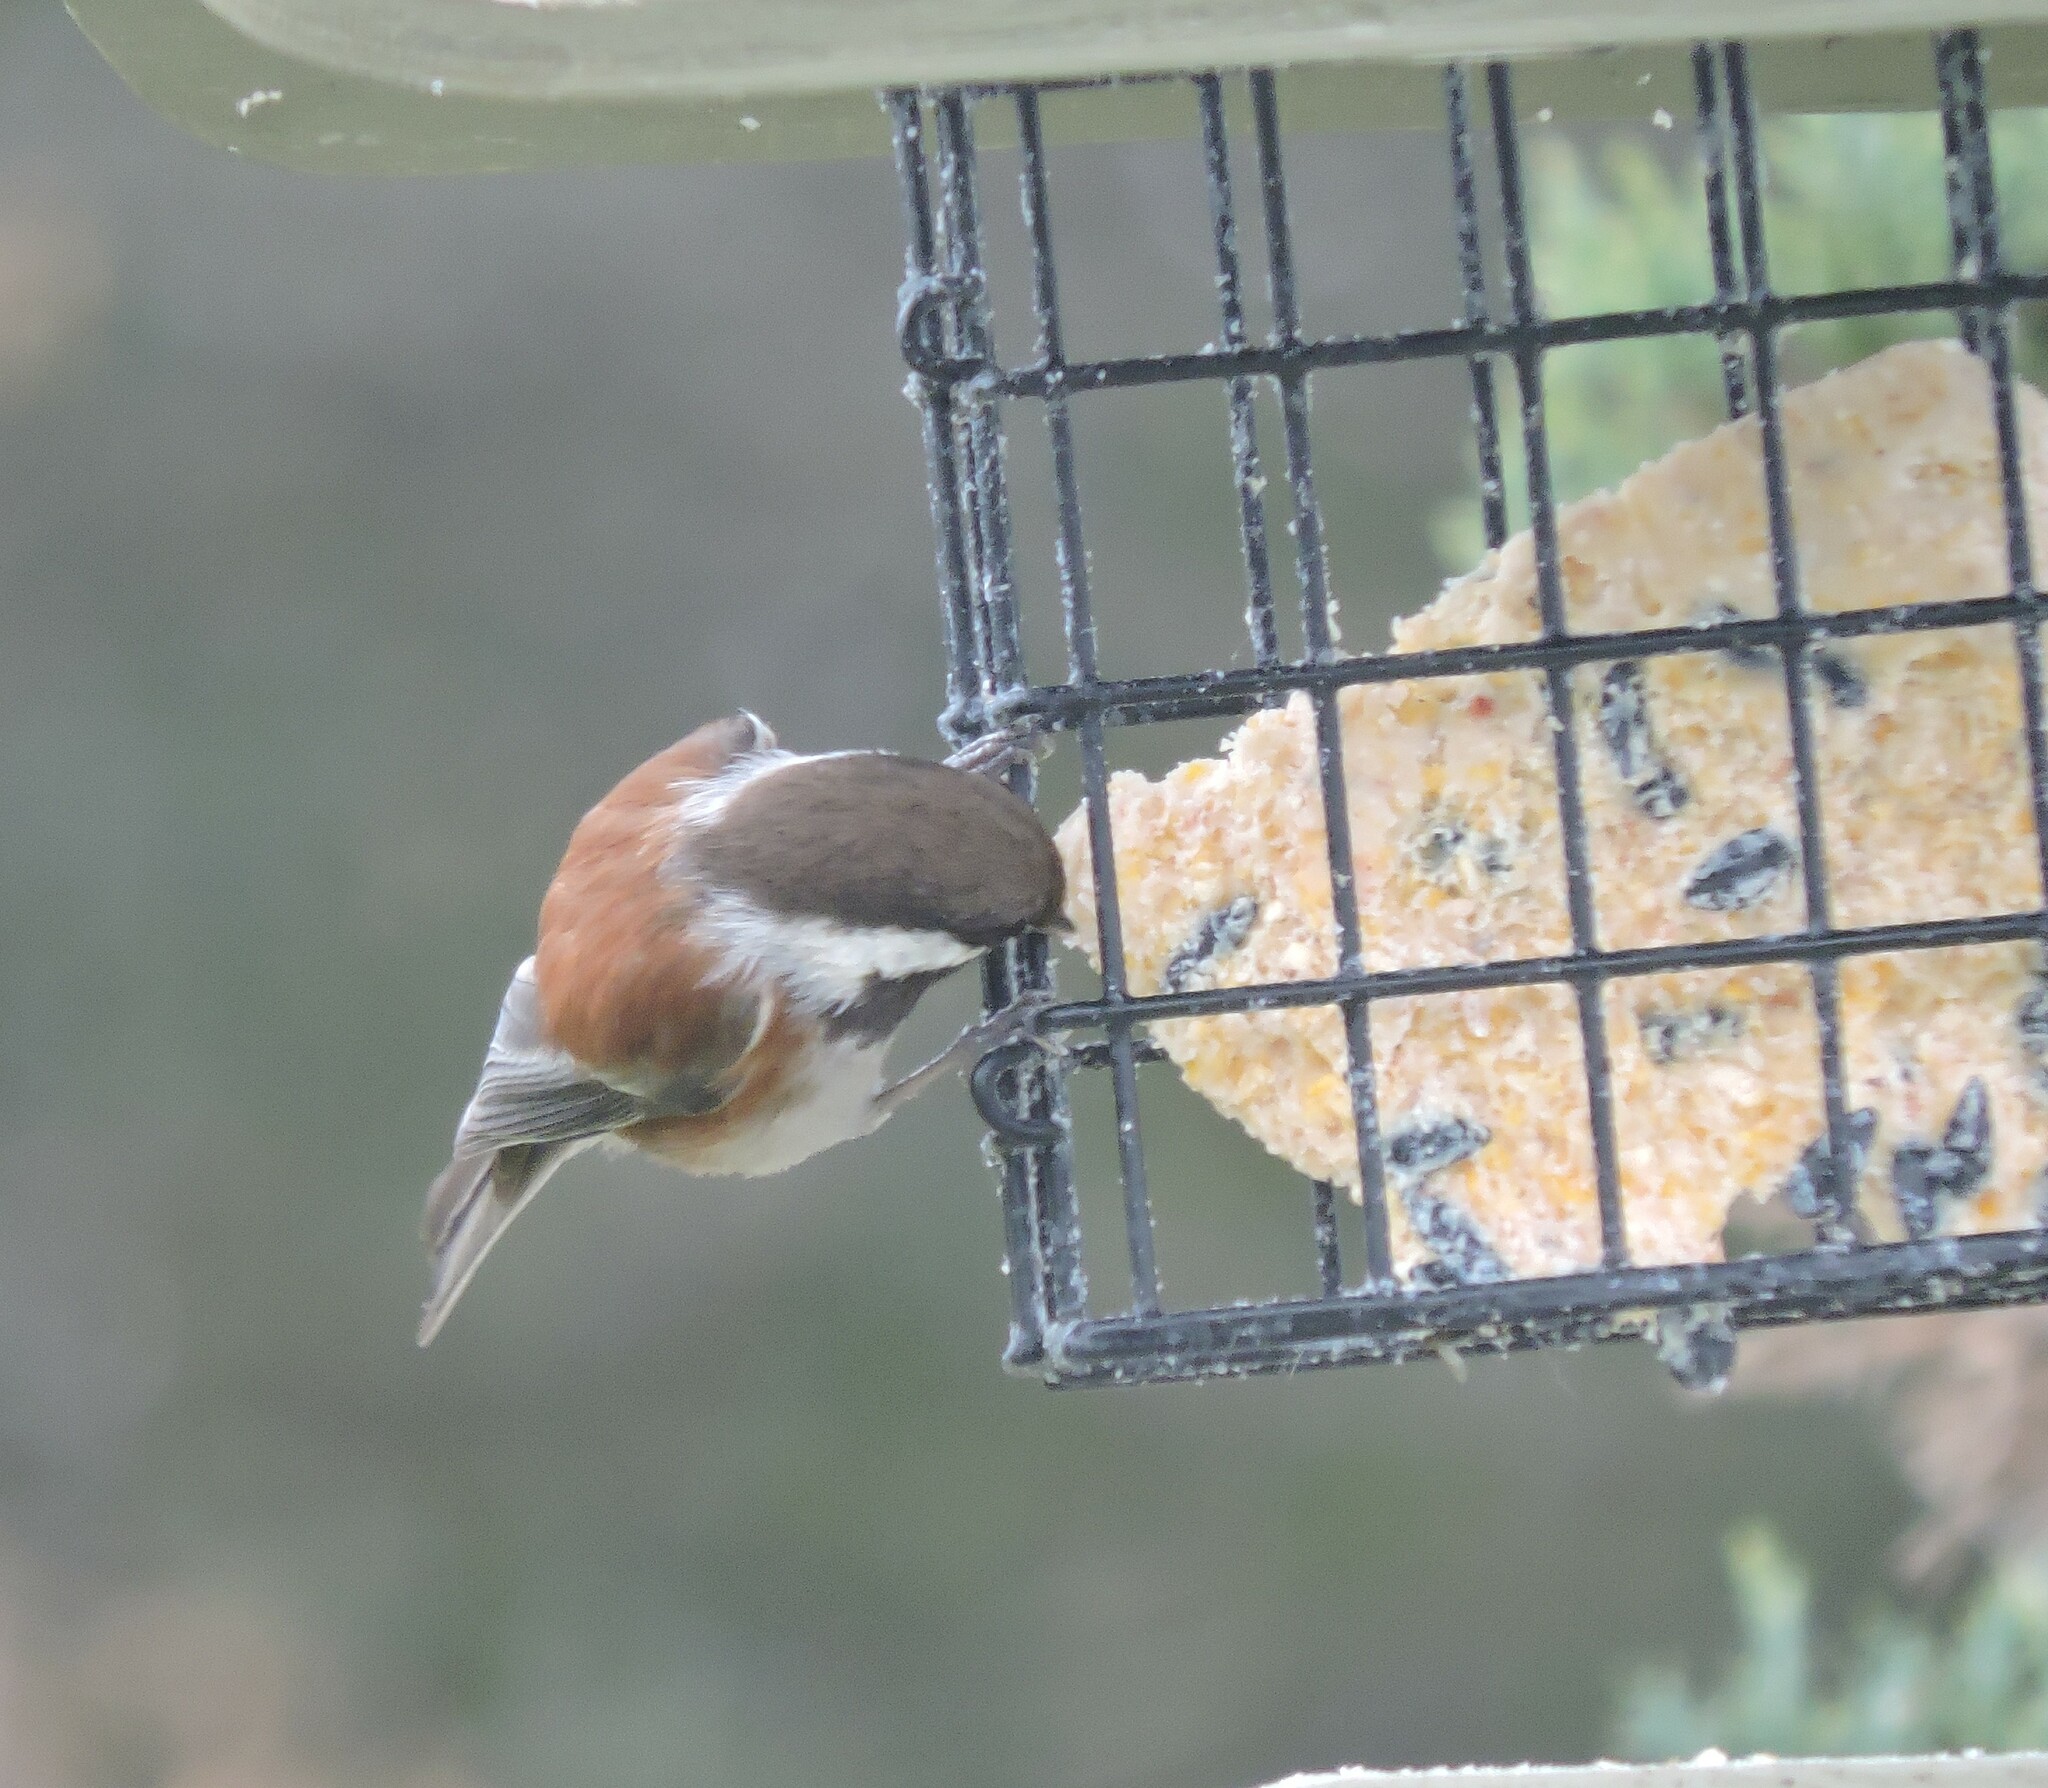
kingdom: Animalia
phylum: Chordata
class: Aves
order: Passeriformes
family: Paridae
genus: Poecile
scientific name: Poecile rufescens
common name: Chestnut-backed chickadee
